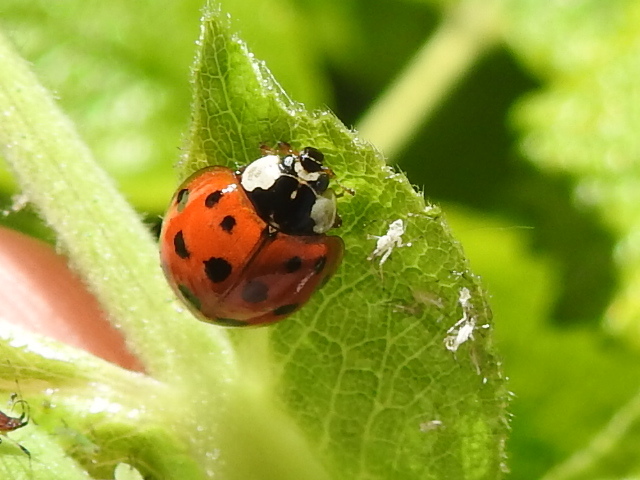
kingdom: Animalia
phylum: Arthropoda
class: Insecta
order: Coleoptera
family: Coccinellidae
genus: Harmonia
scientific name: Harmonia axyridis
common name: Harlequin ladybird
